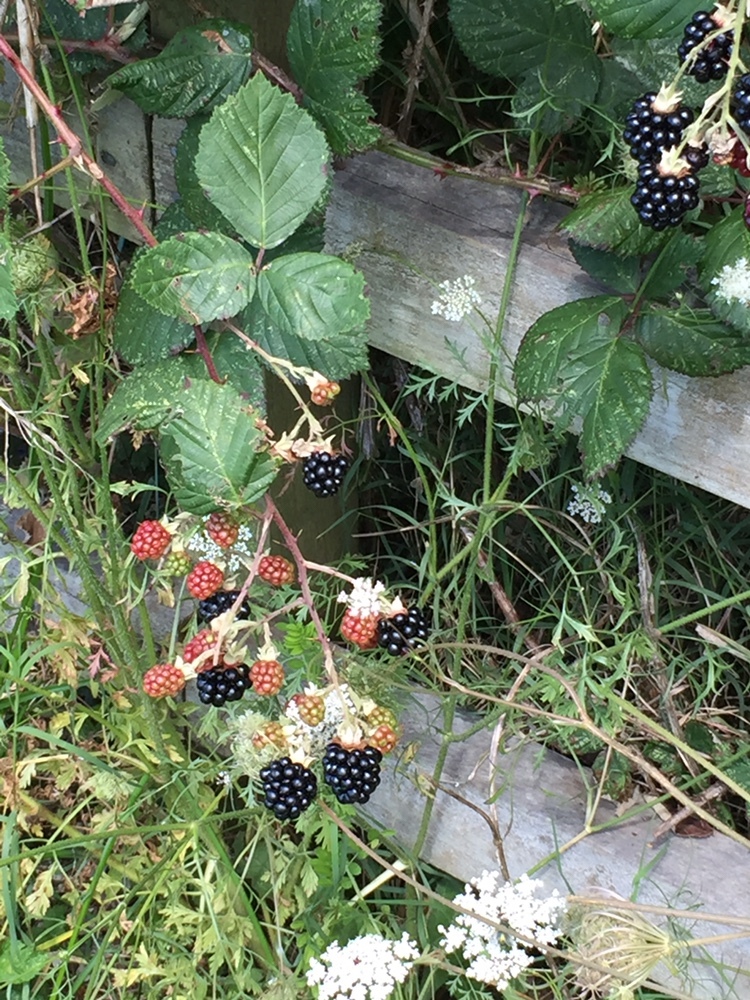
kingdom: Plantae
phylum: Tracheophyta
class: Magnoliopsida
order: Rosales
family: Rosaceae
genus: Rubus
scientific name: Rubus fruticosus
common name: Blackberry, bramble
